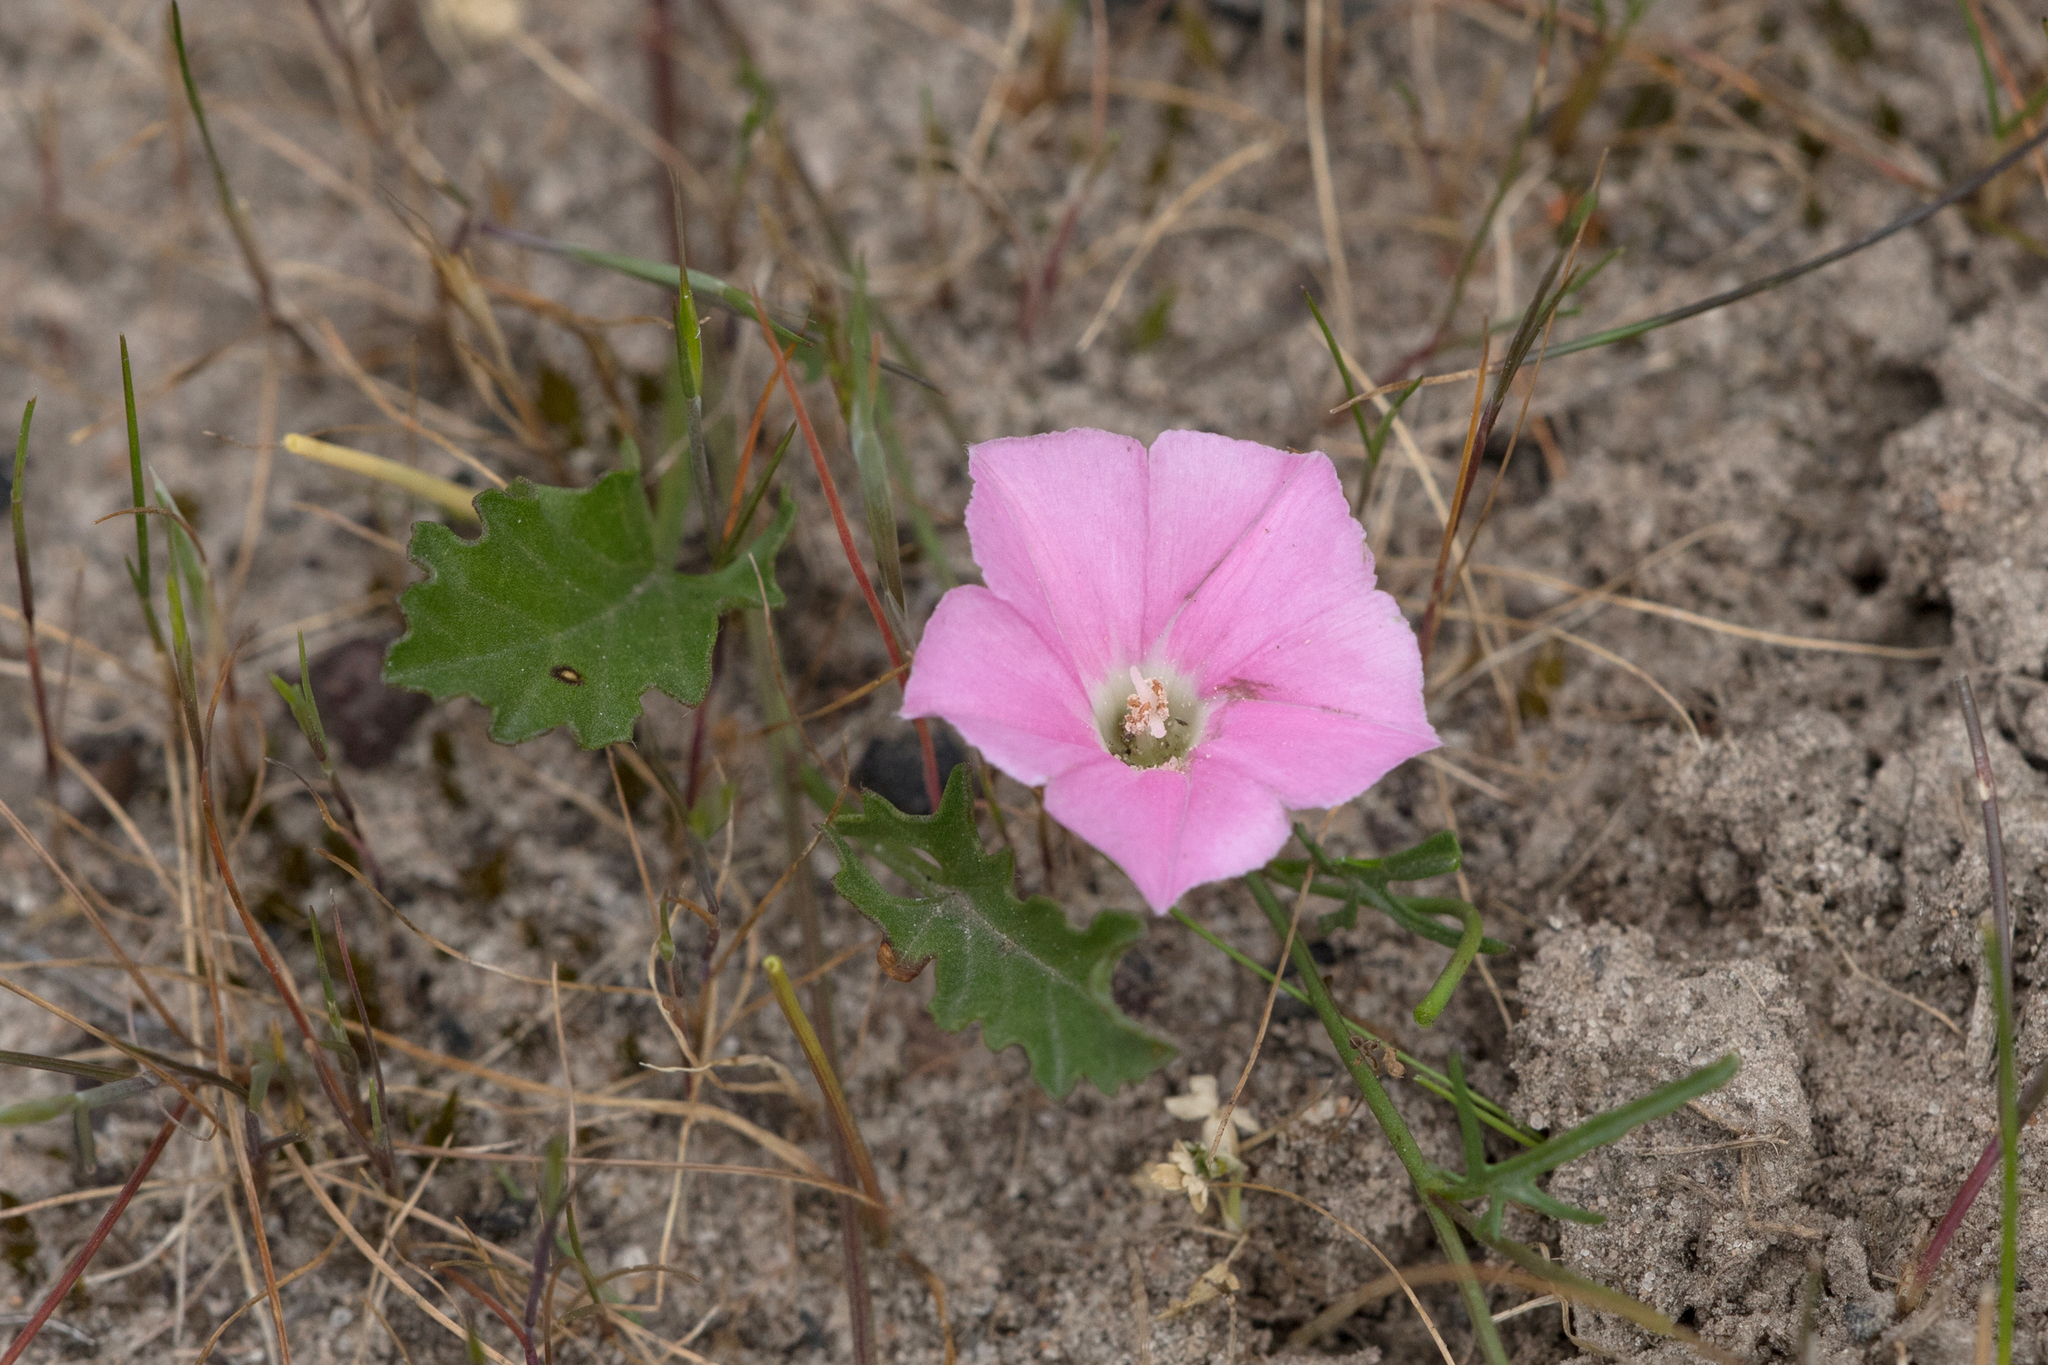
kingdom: Plantae
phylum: Tracheophyta
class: Magnoliopsida
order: Solanales
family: Convolvulaceae
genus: Convolvulus
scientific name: Convolvulus angustissimus
